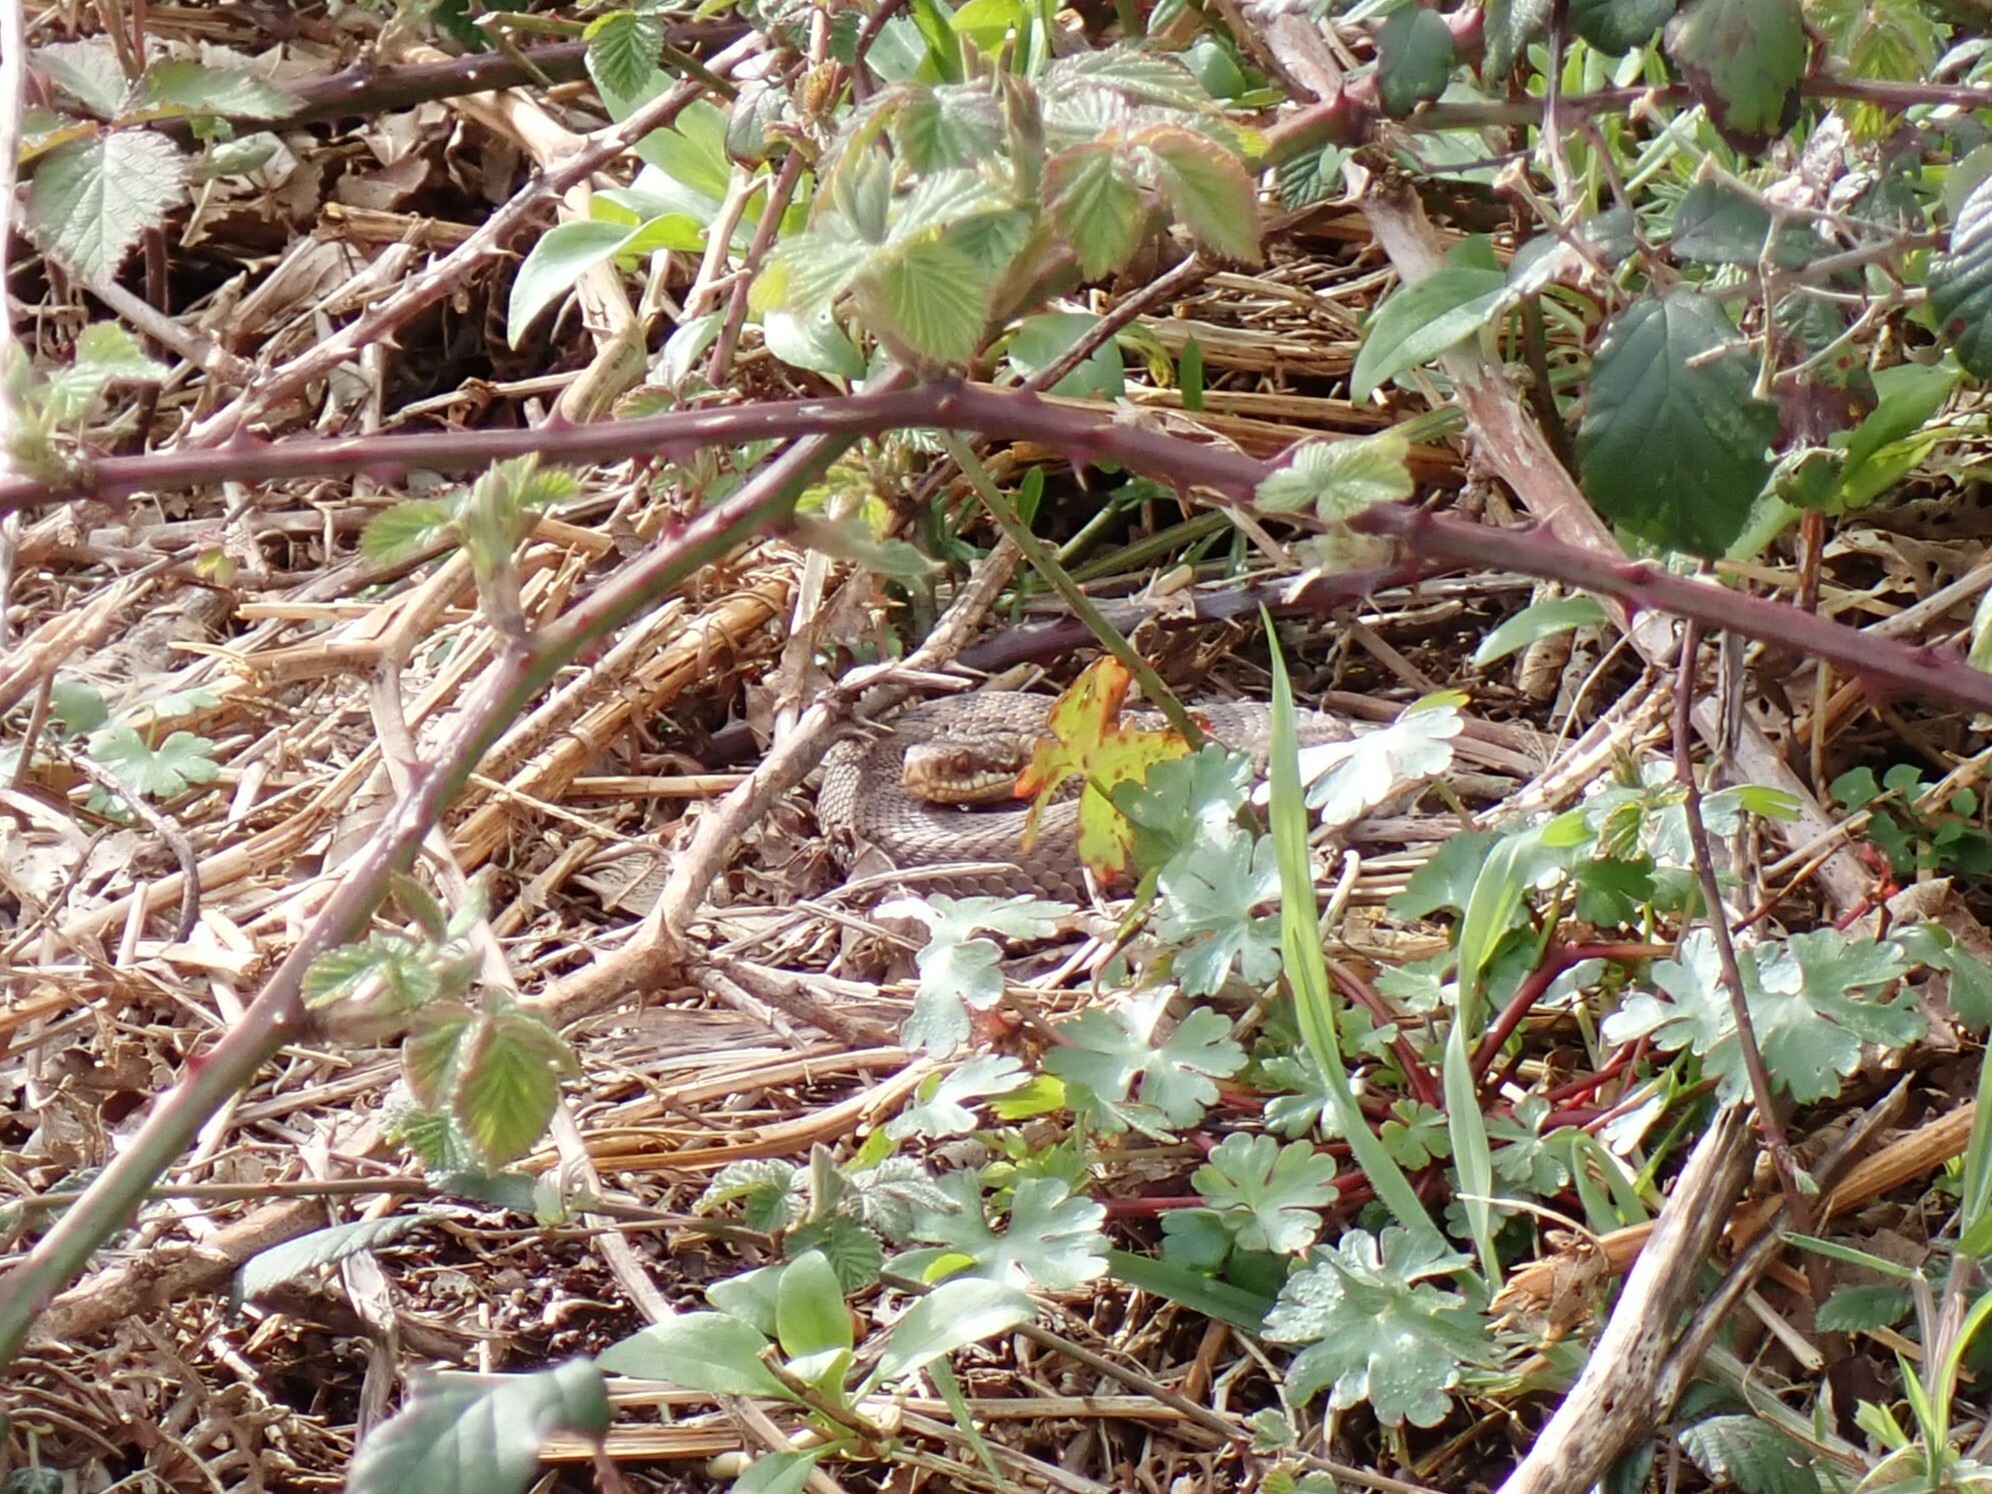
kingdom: Animalia
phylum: Chordata
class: Squamata
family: Viperidae
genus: Vipera
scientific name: Vipera berus
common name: Adder
